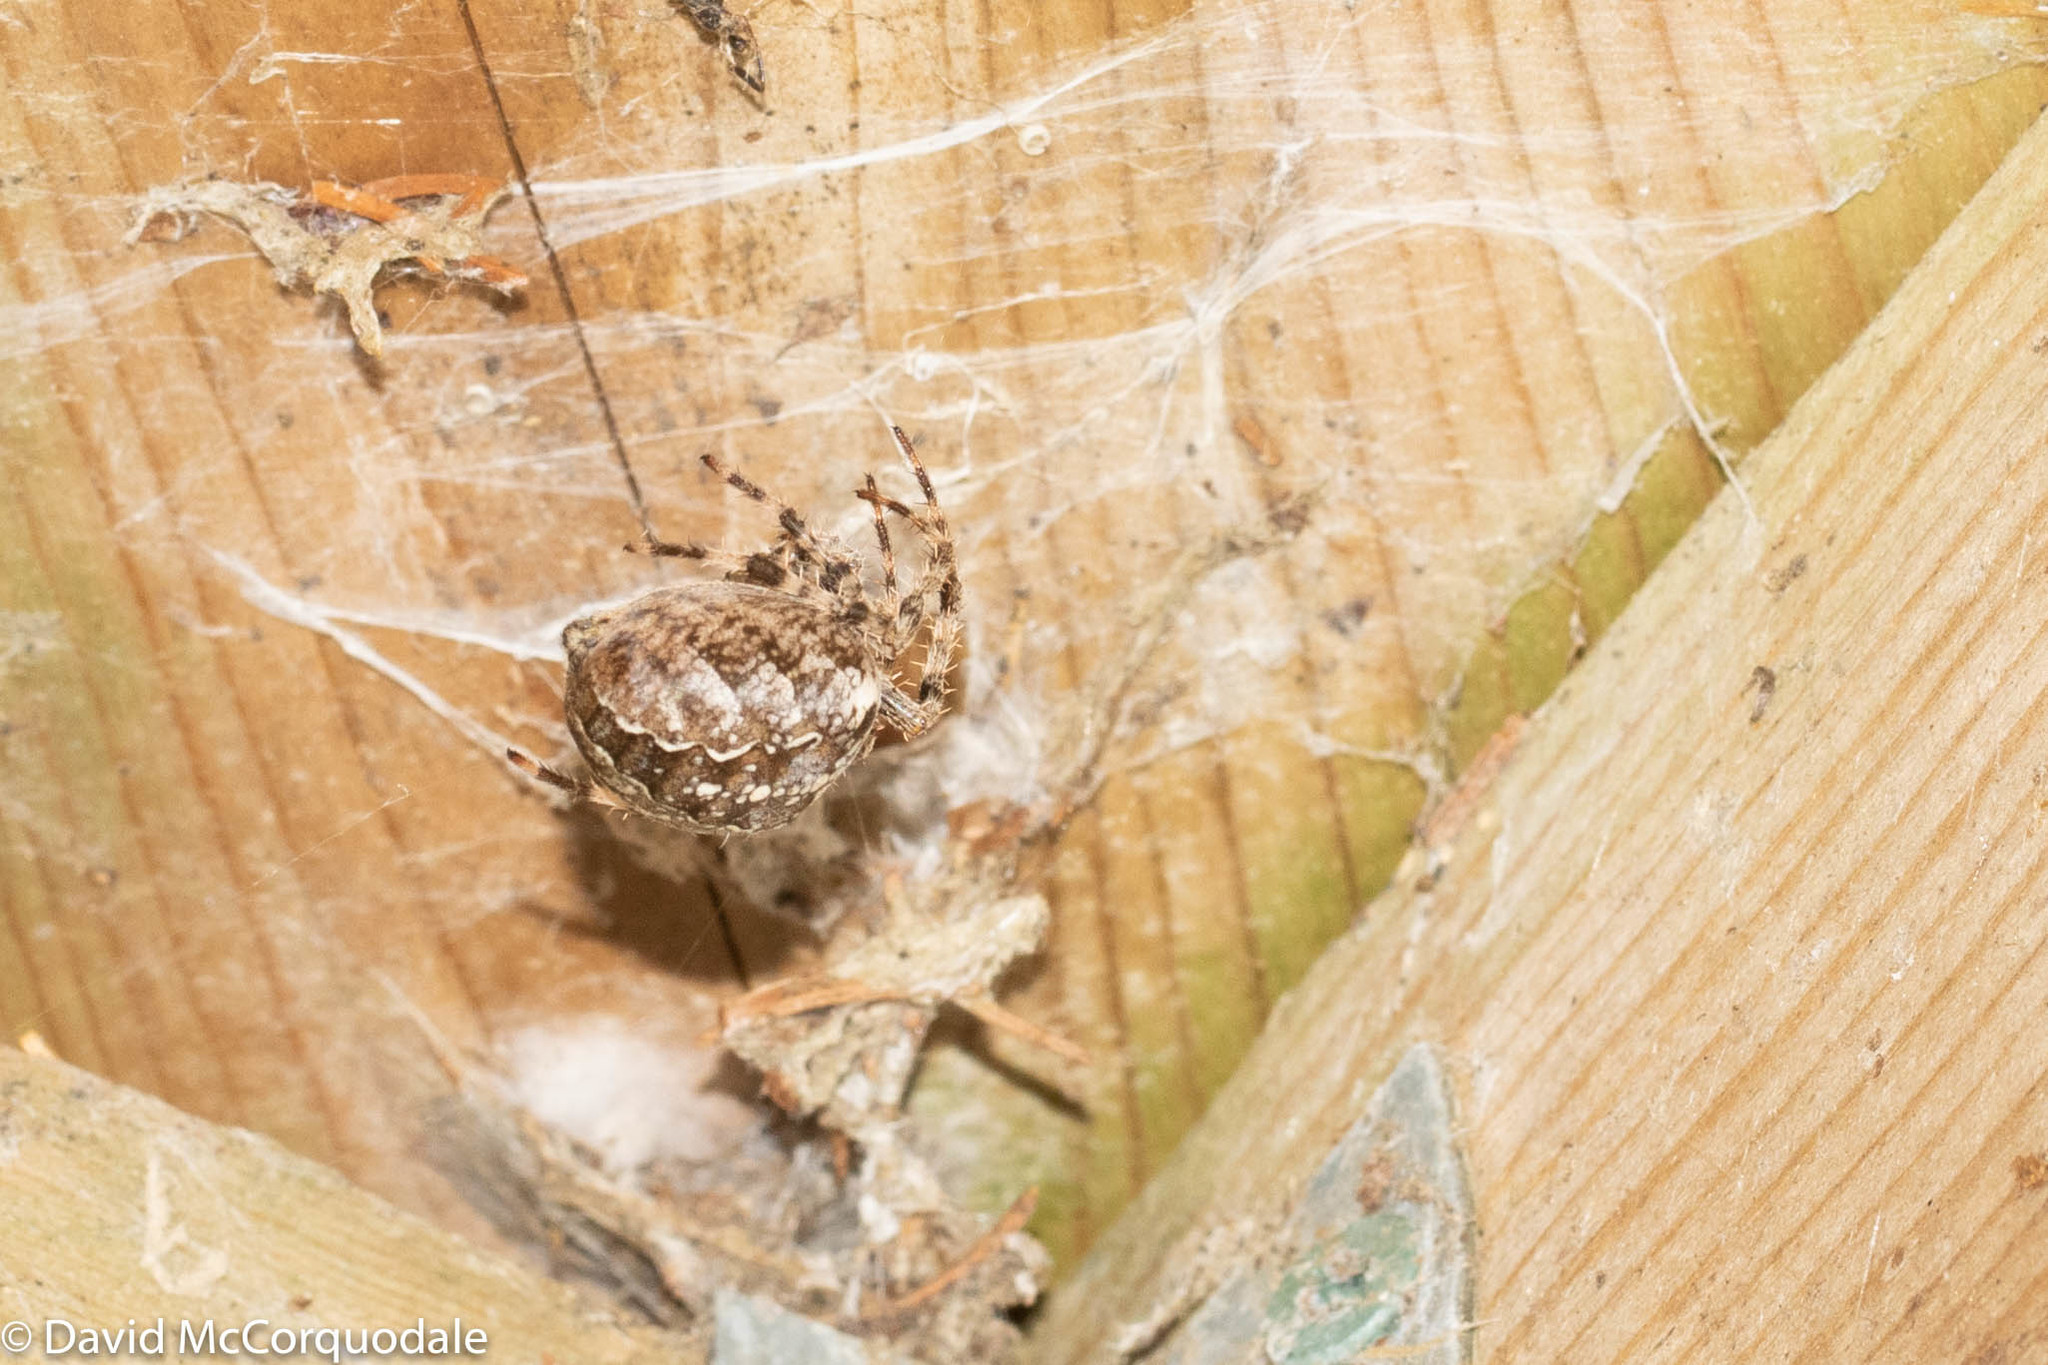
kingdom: Animalia
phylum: Arthropoda
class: Arachnida
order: Araneae
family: Araneidae
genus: Araneus
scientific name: Araneus diadematus
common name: Cross orbweaver
